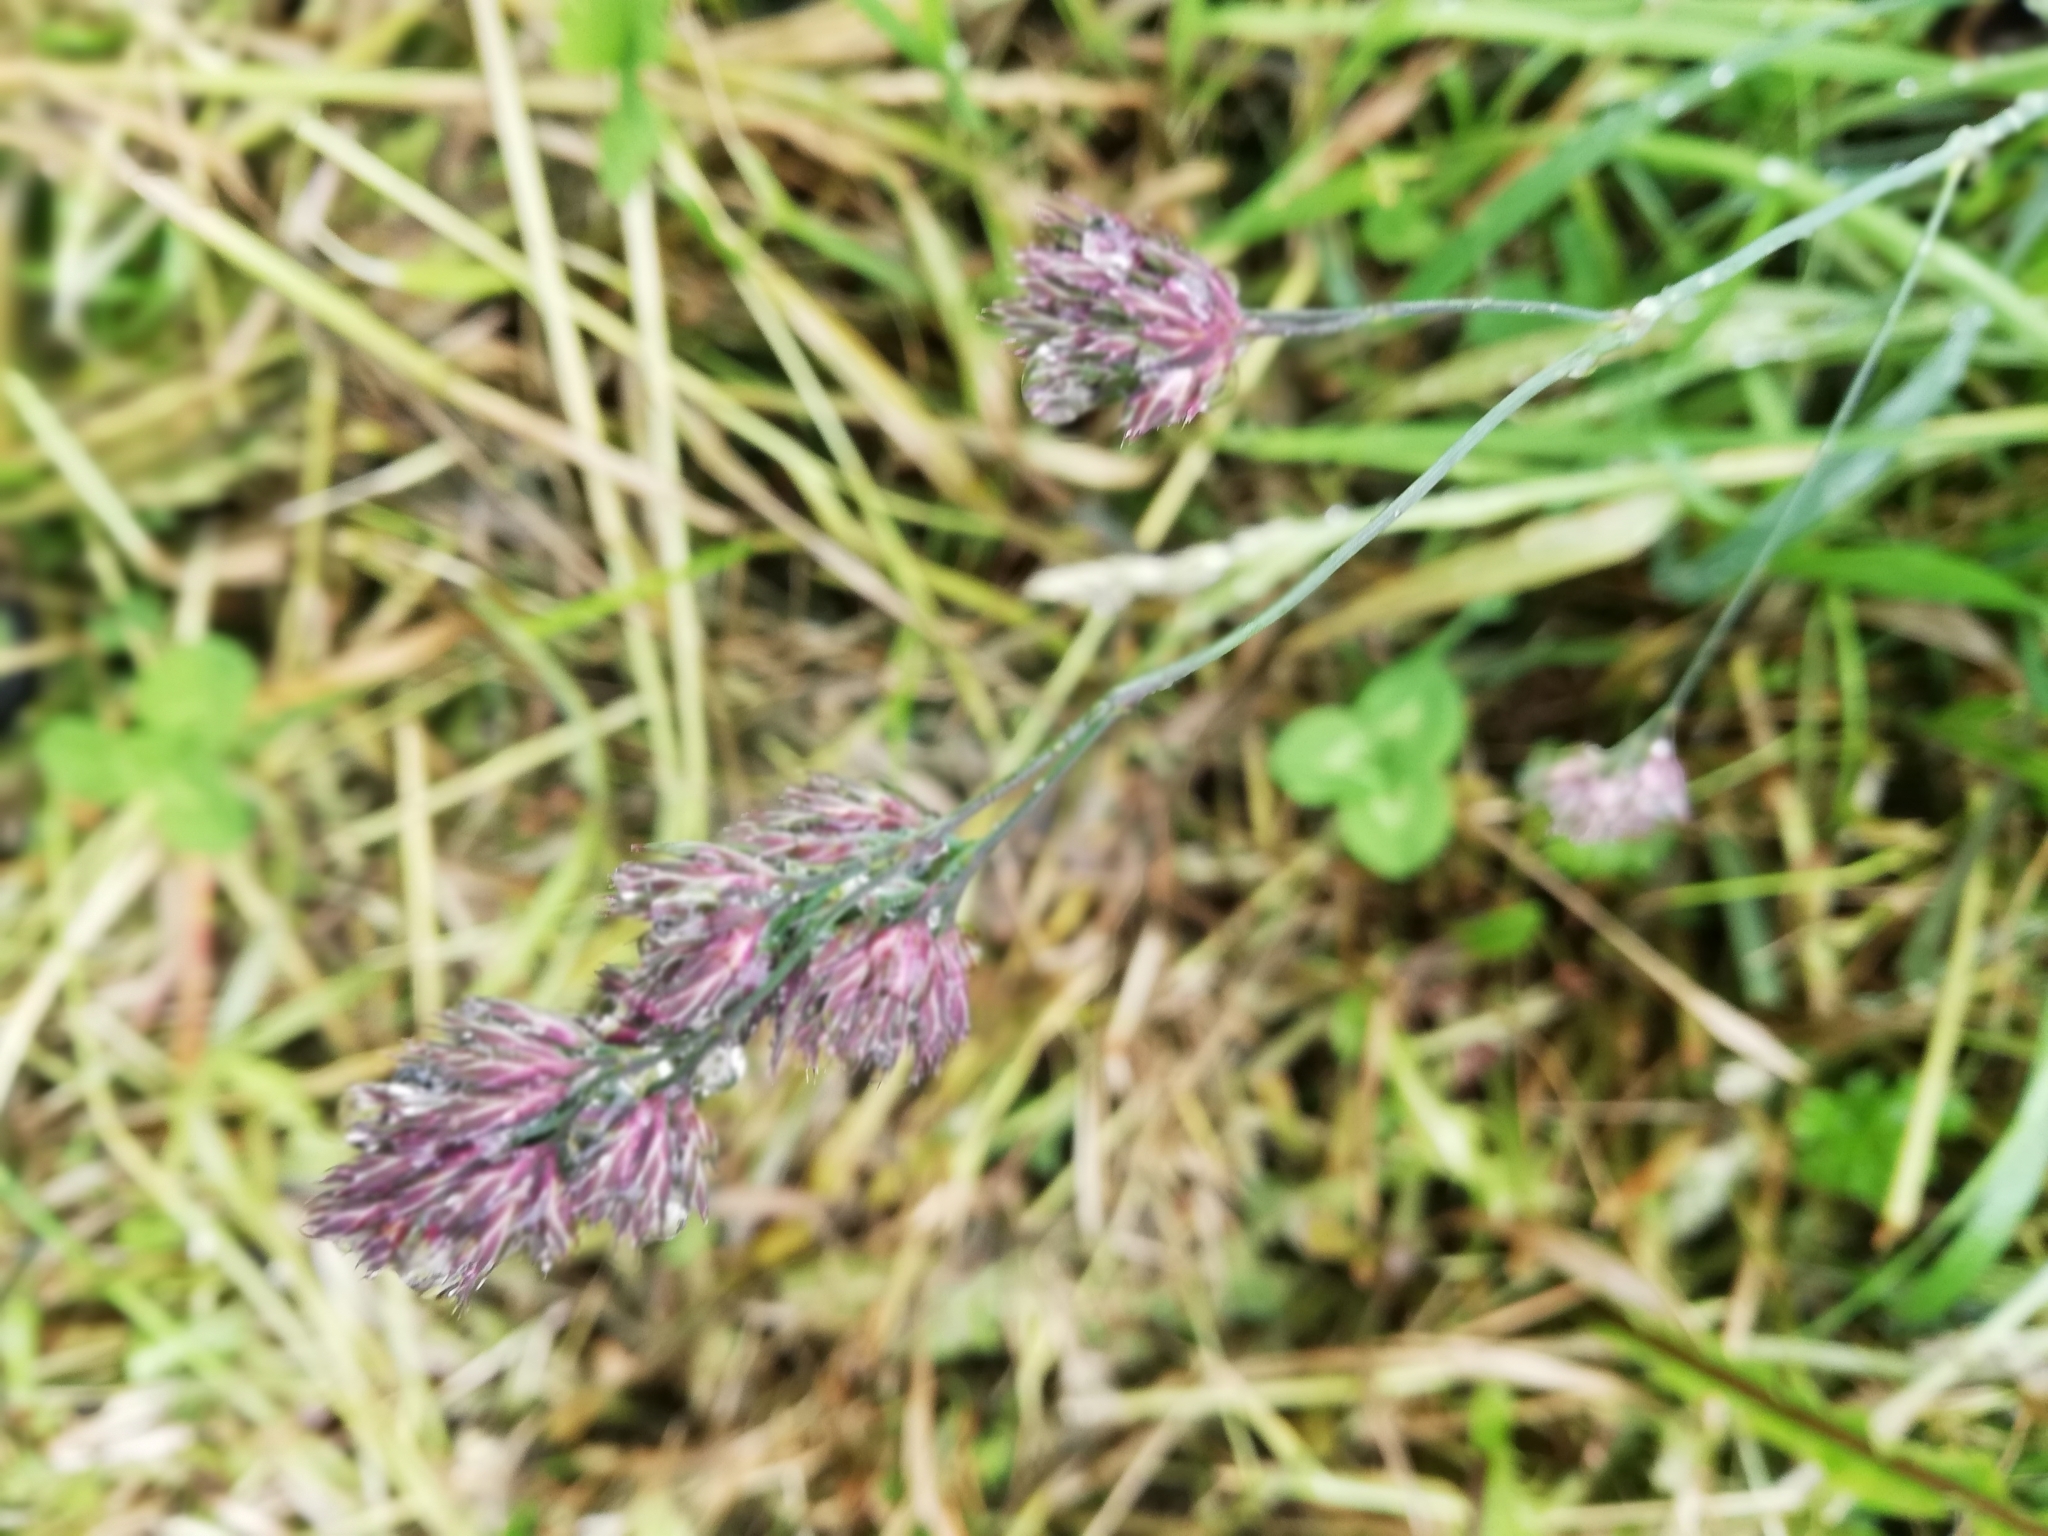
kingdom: Plantae
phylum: Tracheophyta
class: Liliopsida
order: Poales
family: Poaceae
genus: Dactylis
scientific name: Dactylis glomerata
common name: Orchardgrass
